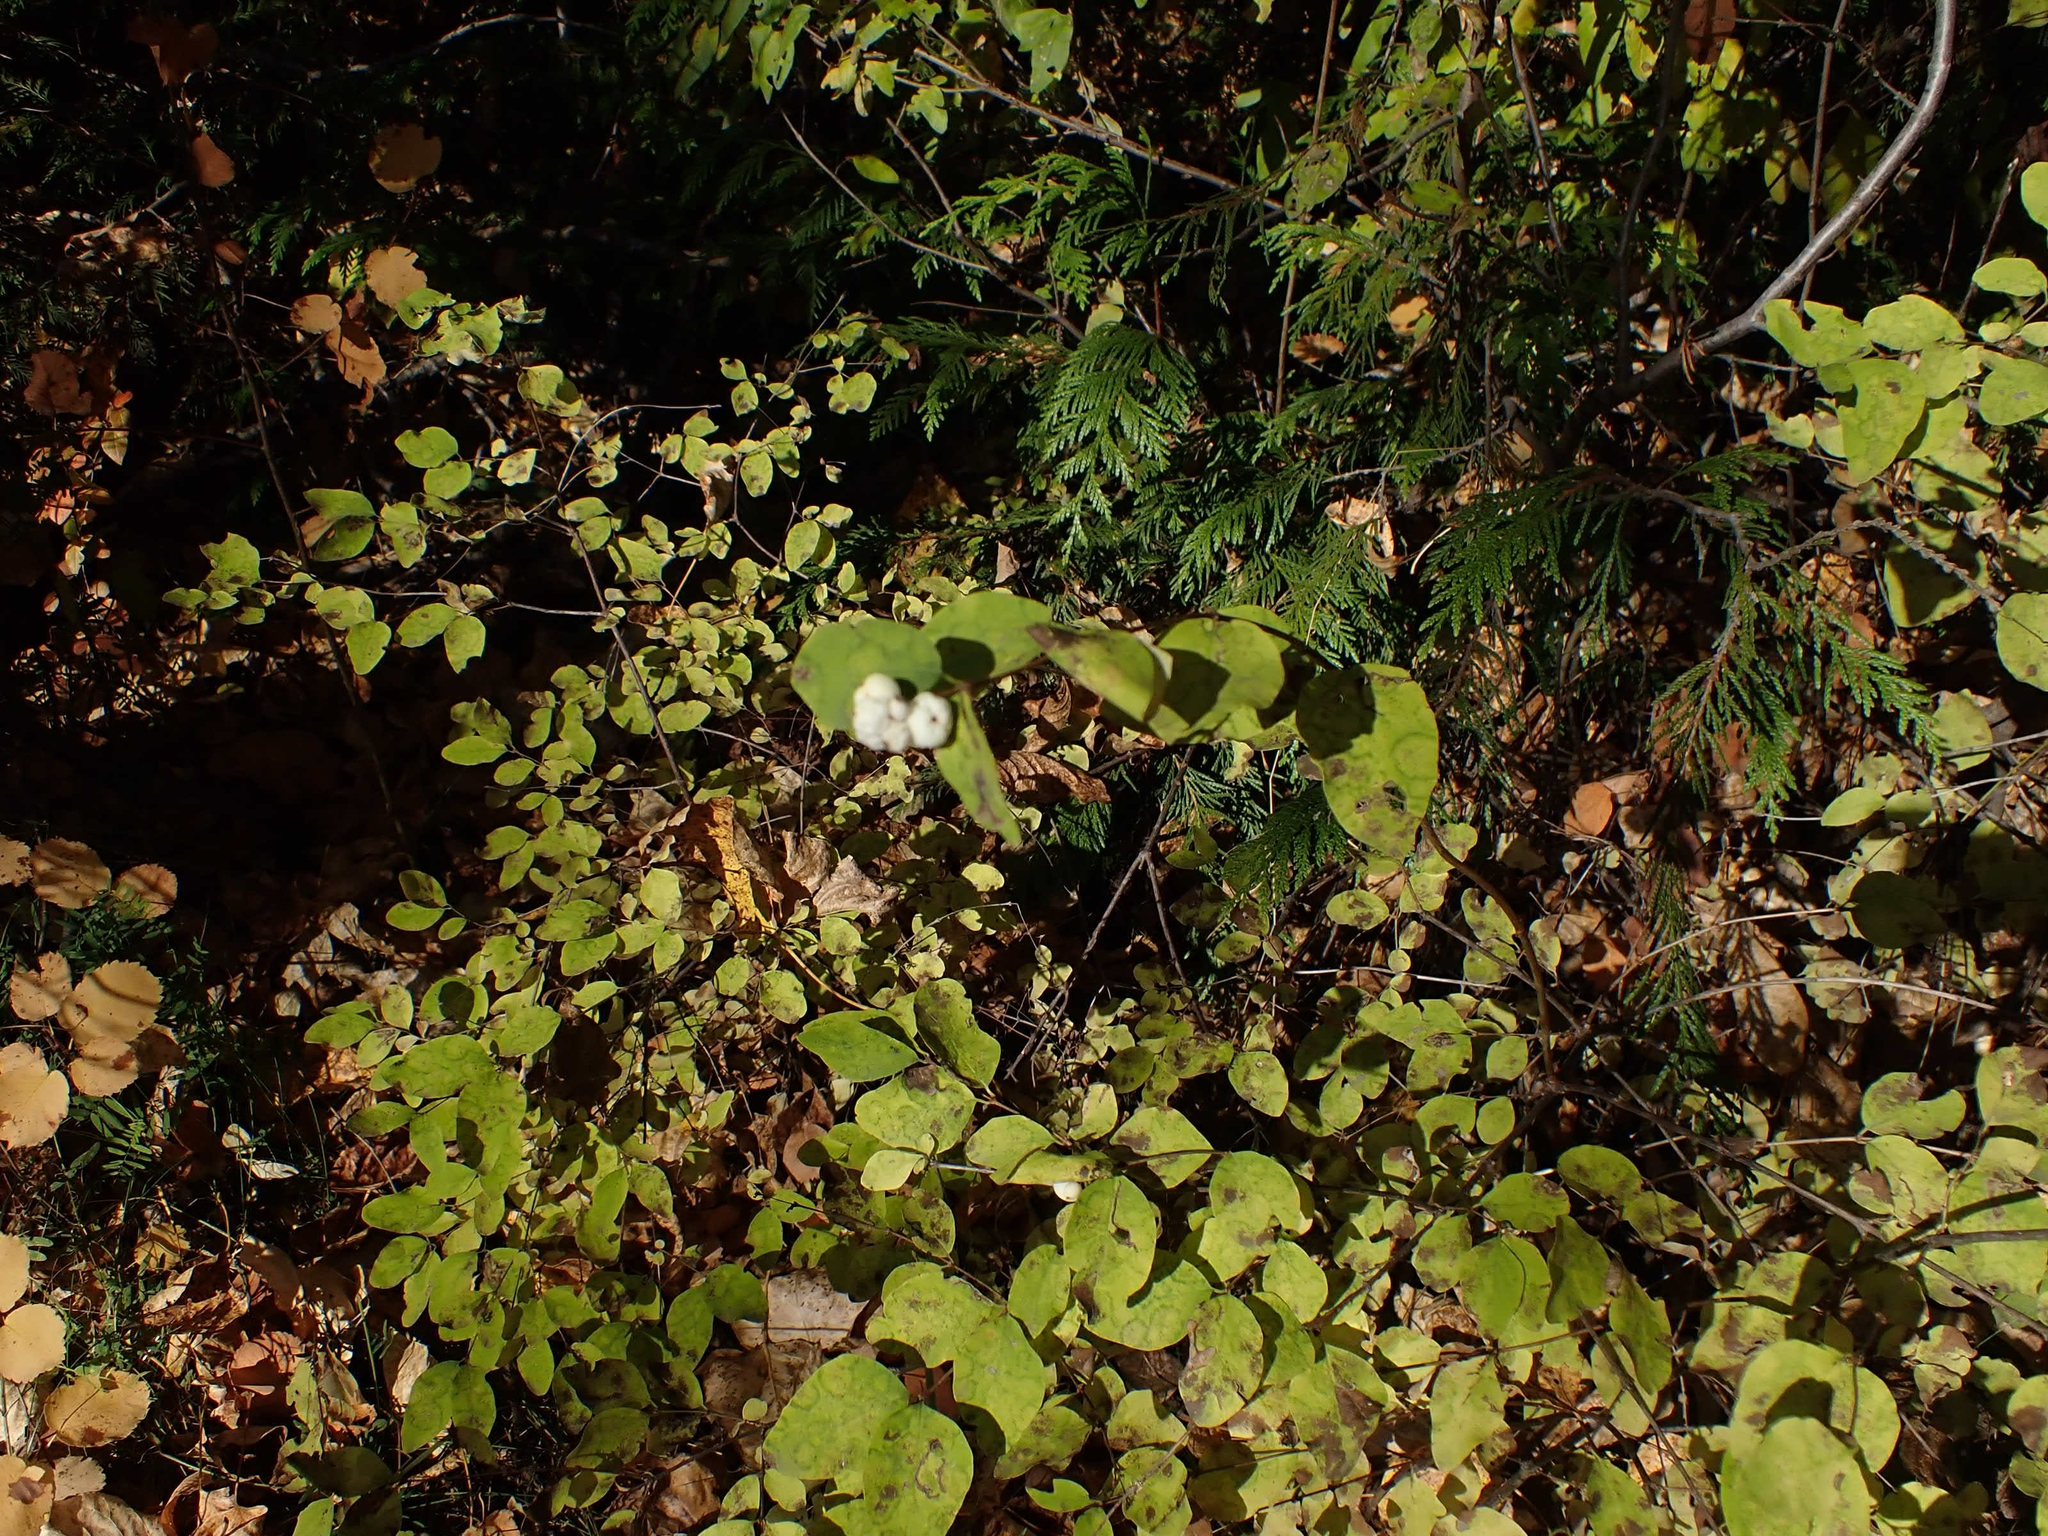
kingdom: Plantae
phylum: Tracheophyta
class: Magnoliopsida
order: Dipsacales
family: Caprifoliaceae
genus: Symphoricarpos
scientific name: Symphoricarpos albus
